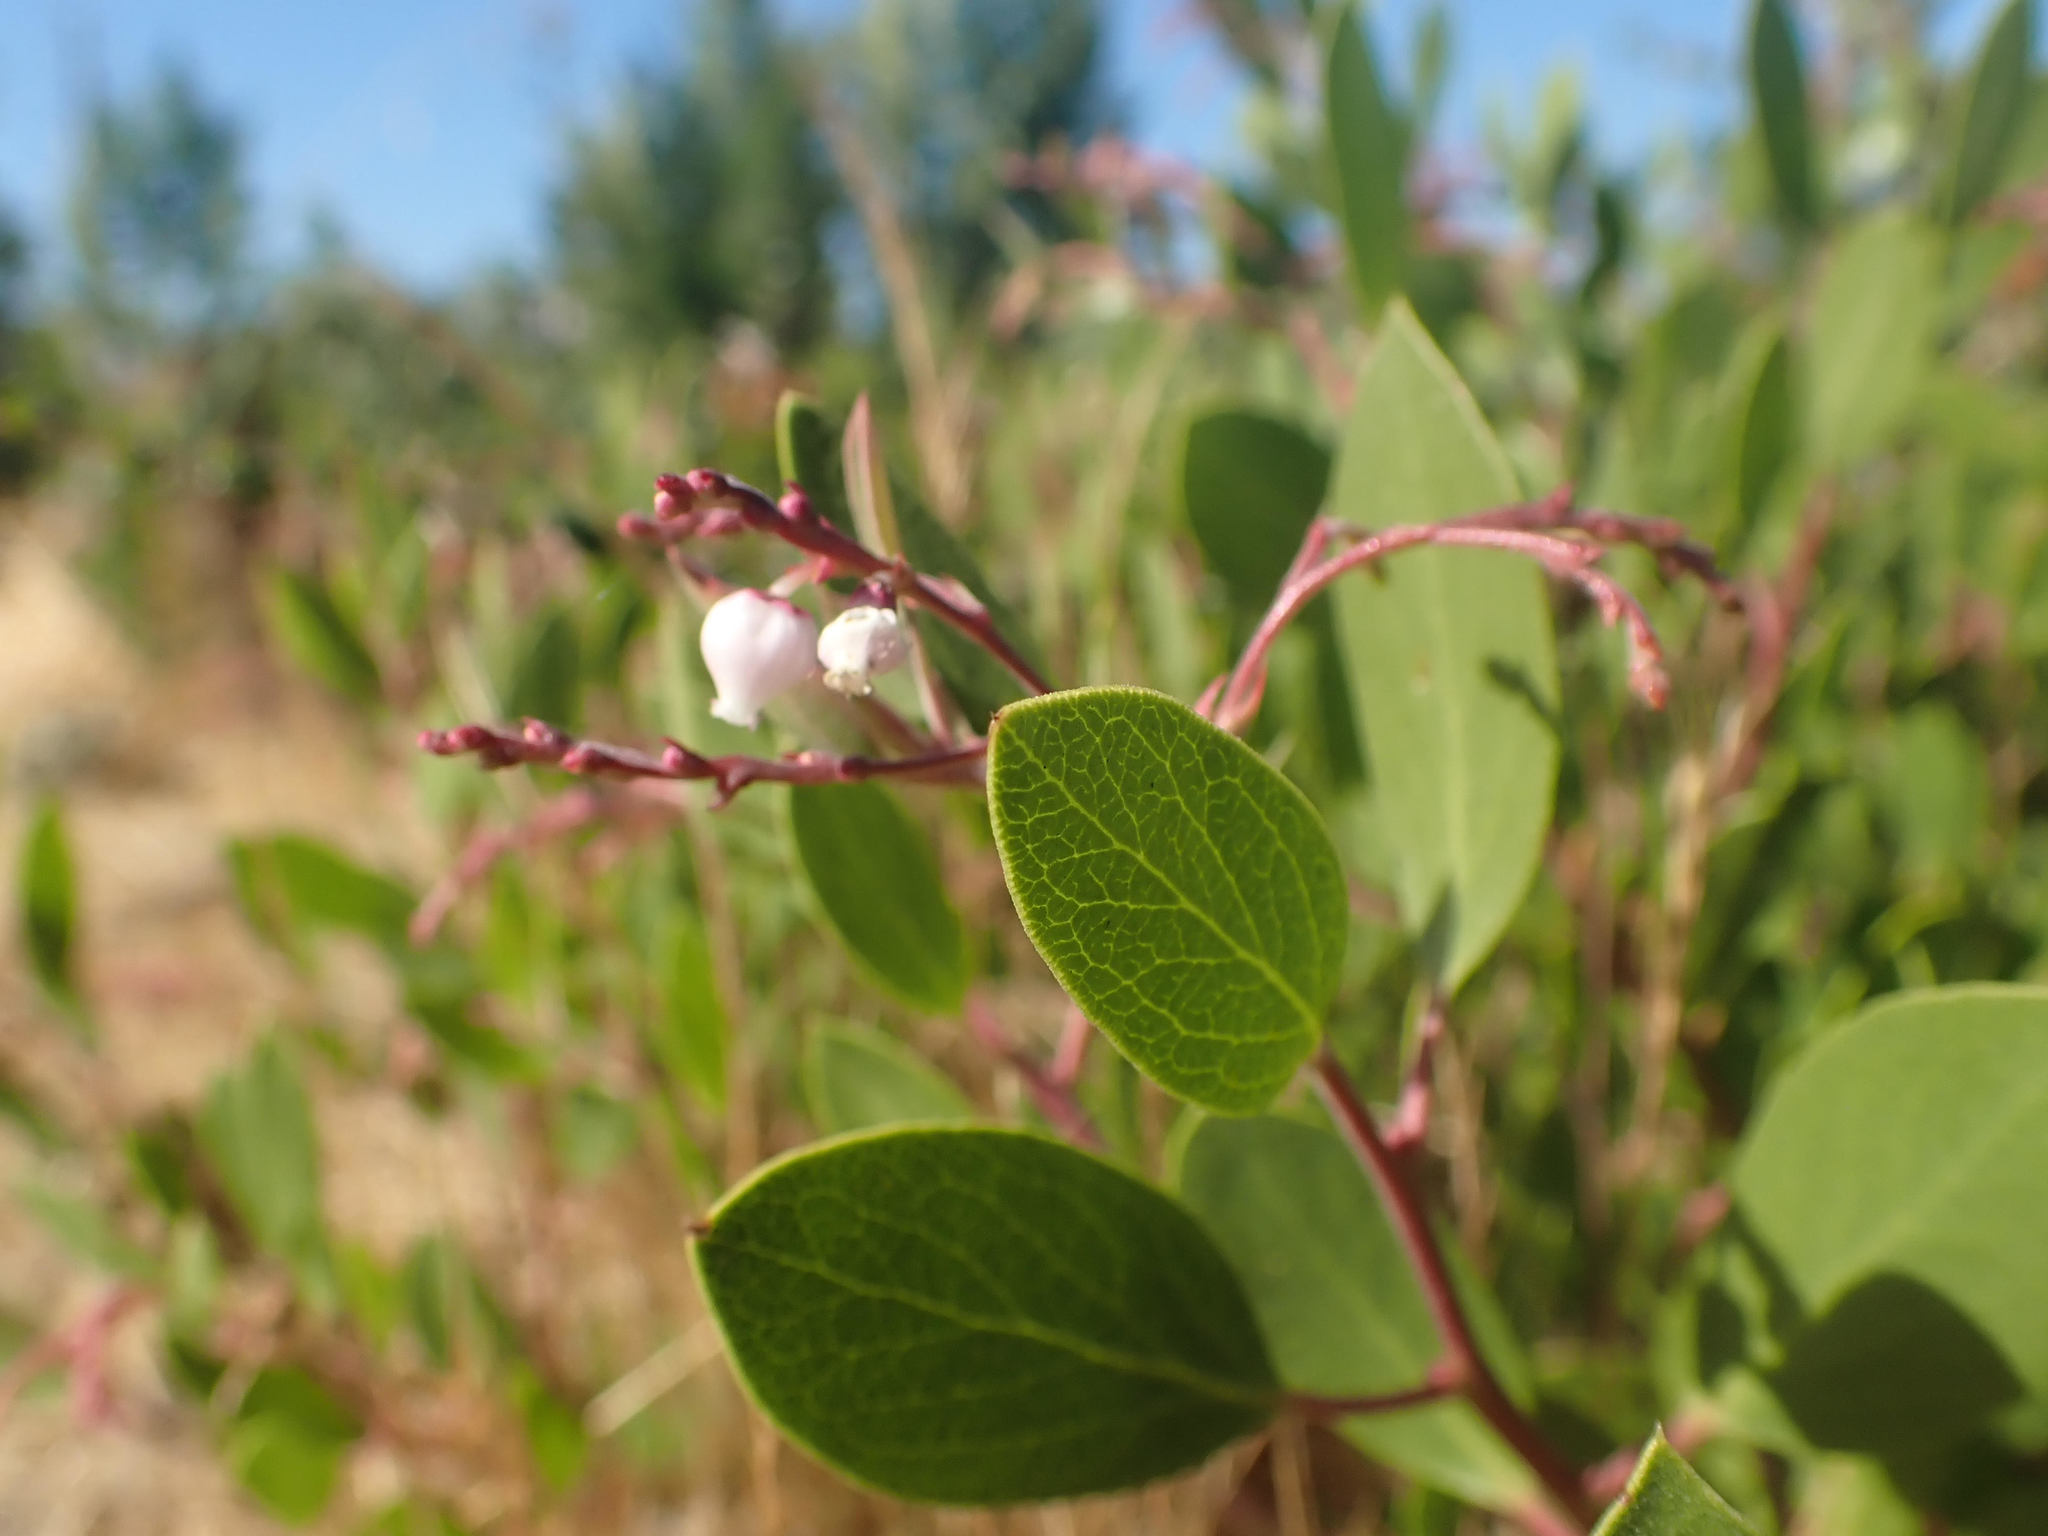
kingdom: Plantae
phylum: Tracheophyta
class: Magnoliopsida
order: Ericales
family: Ericaceae
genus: Arctostaphylos
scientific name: Arctostaphylos stanfordiana
